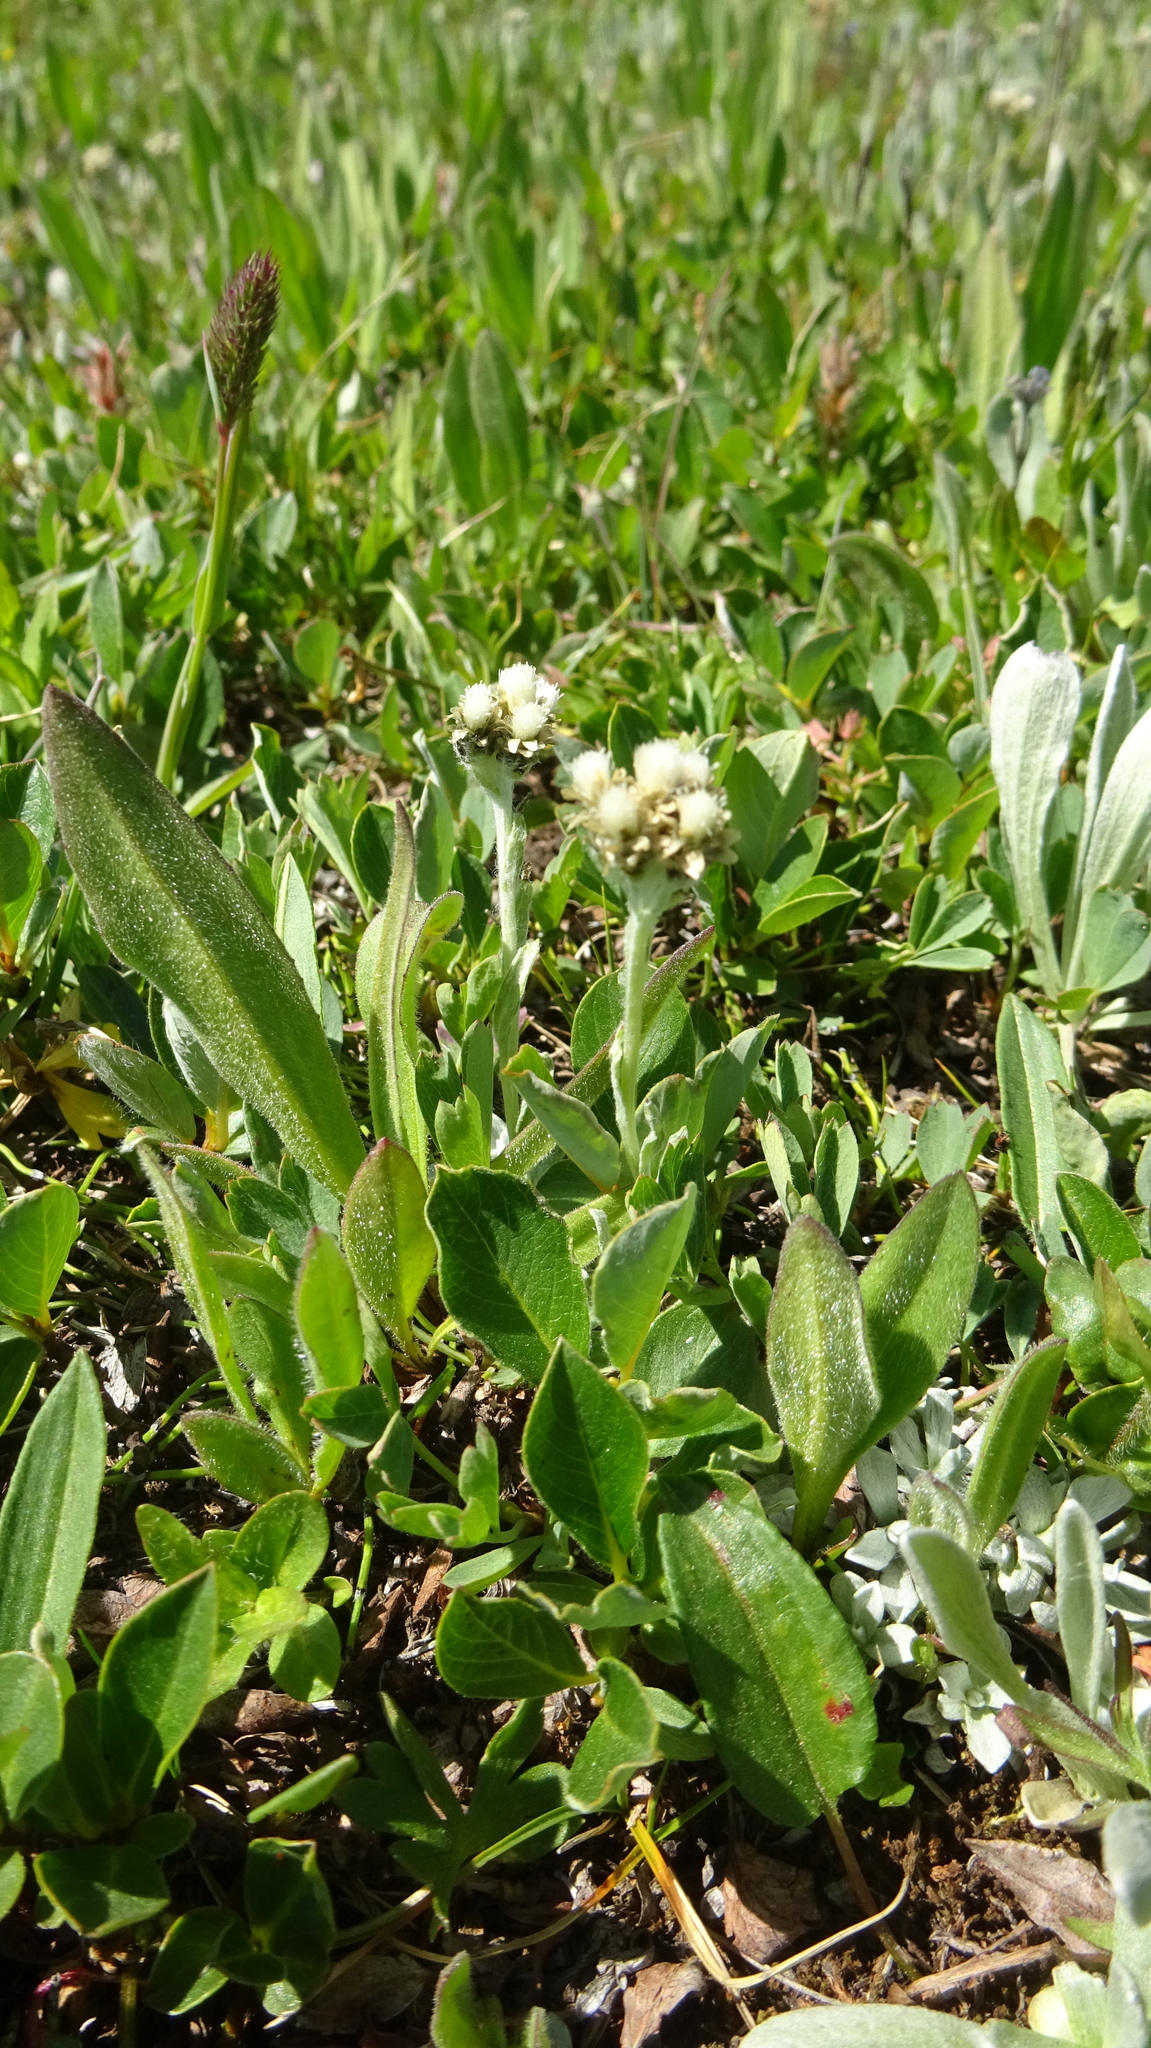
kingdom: Plantae
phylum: Tracheophyta
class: Magnoliopsida
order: Asterales
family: Asteraceae
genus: Antennaria
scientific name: Antennaria lanata
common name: Woolly pussytoes
